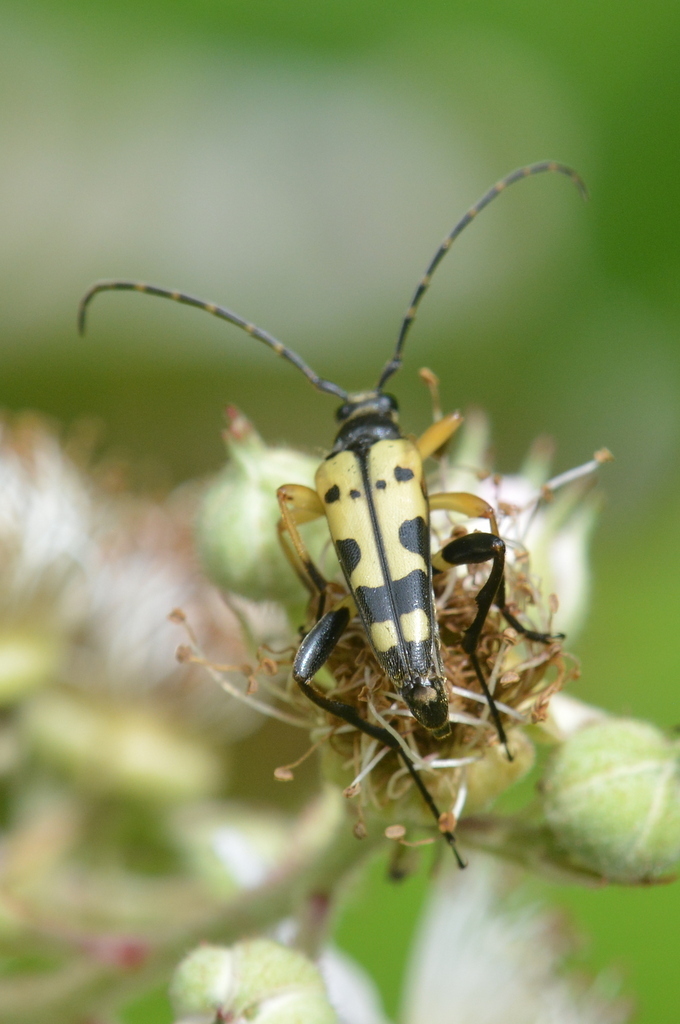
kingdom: Animalia
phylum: Arthropoda
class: Insecta
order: Coleoptera
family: Cerambycidae
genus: Rutpela
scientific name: Rutpela maculata
